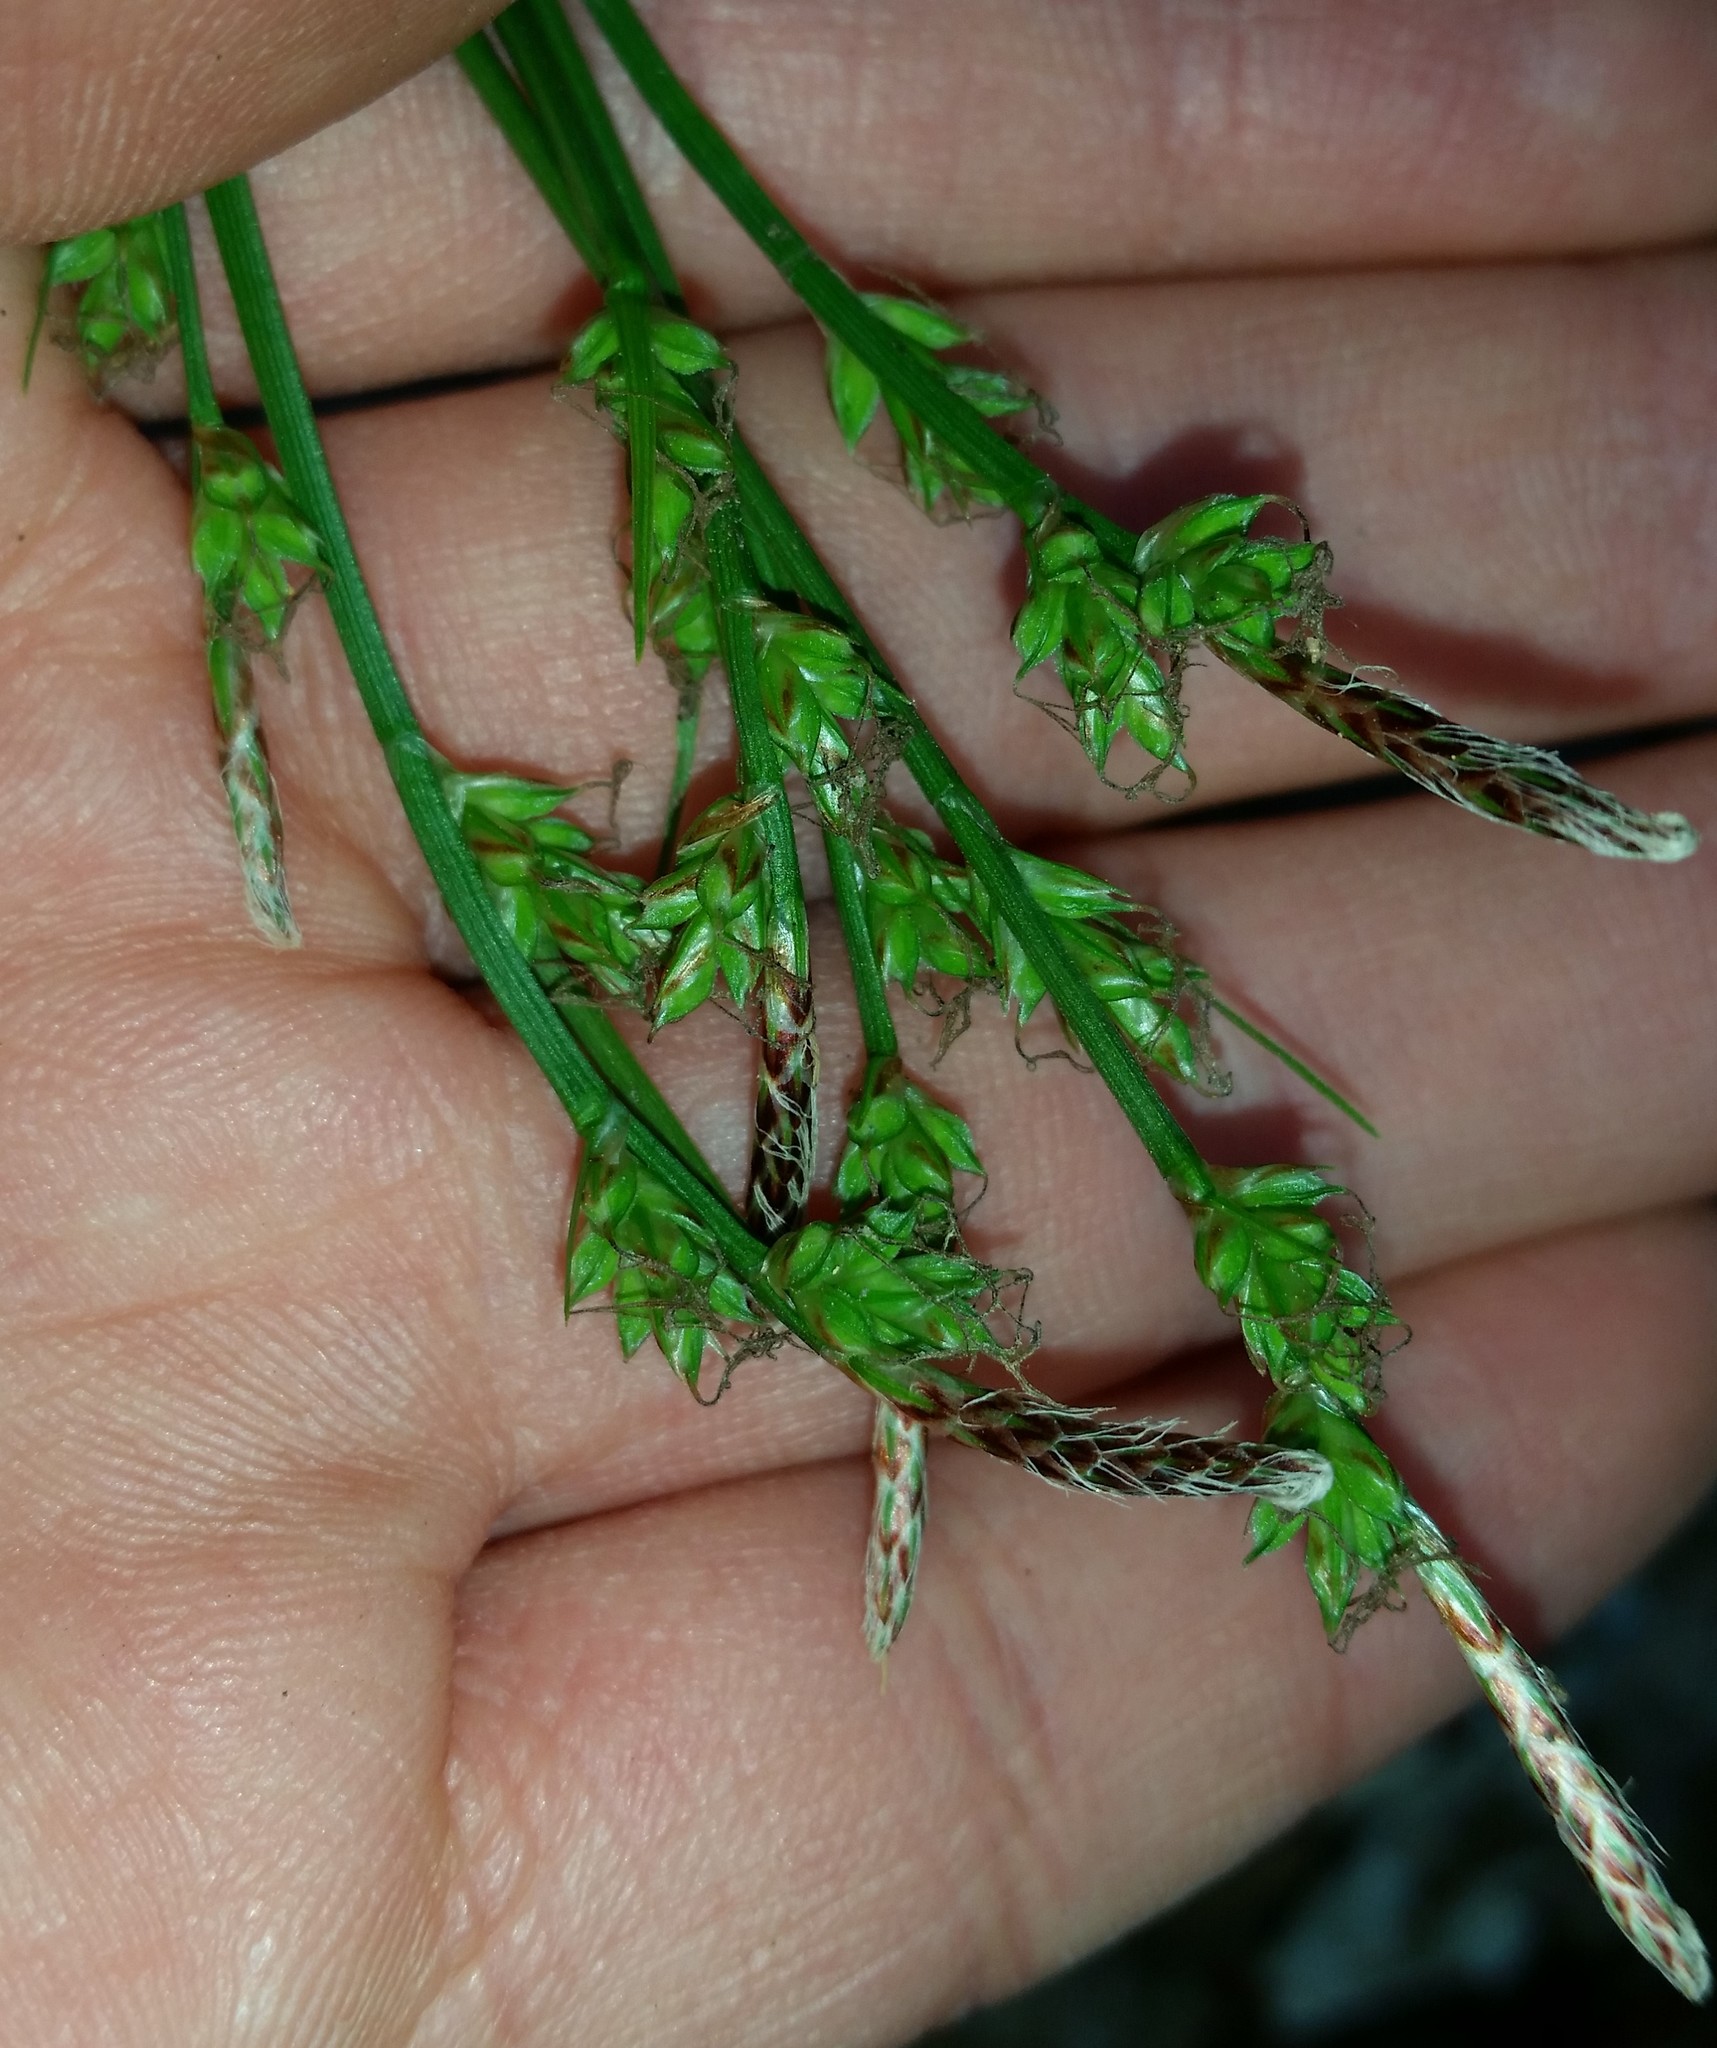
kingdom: Plantae
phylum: Tracheophyta
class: Liliopsida
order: Poales
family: Cyperaceae
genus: Carex
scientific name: Carex communis
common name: Colonial oak sedge
